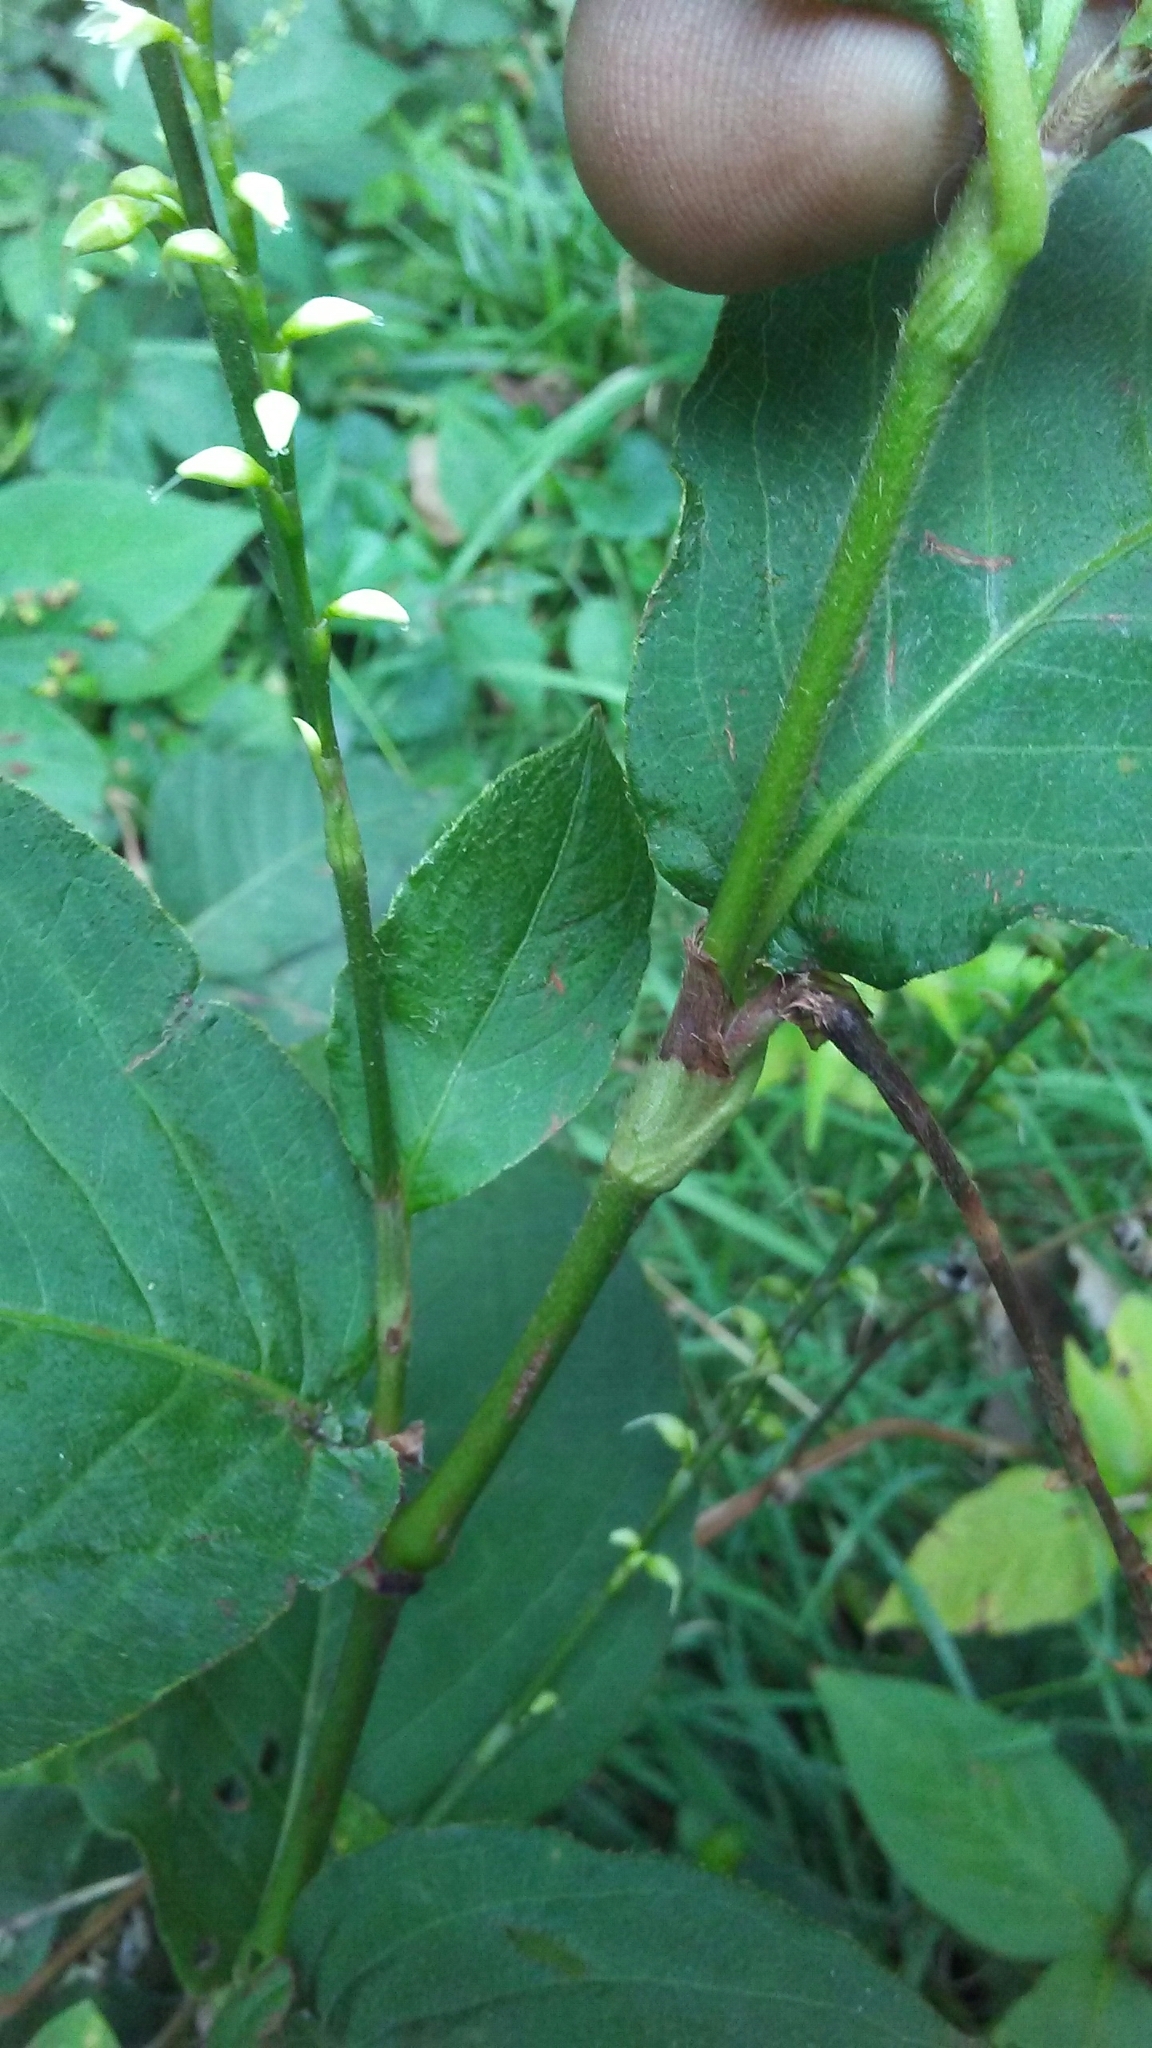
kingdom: Plantae
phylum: Tracheophyta
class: Magnoliopsida
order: Caryophyllales
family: Polygonaceae
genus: Persicaria
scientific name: Persicaria virginiana
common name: Jumpseed
